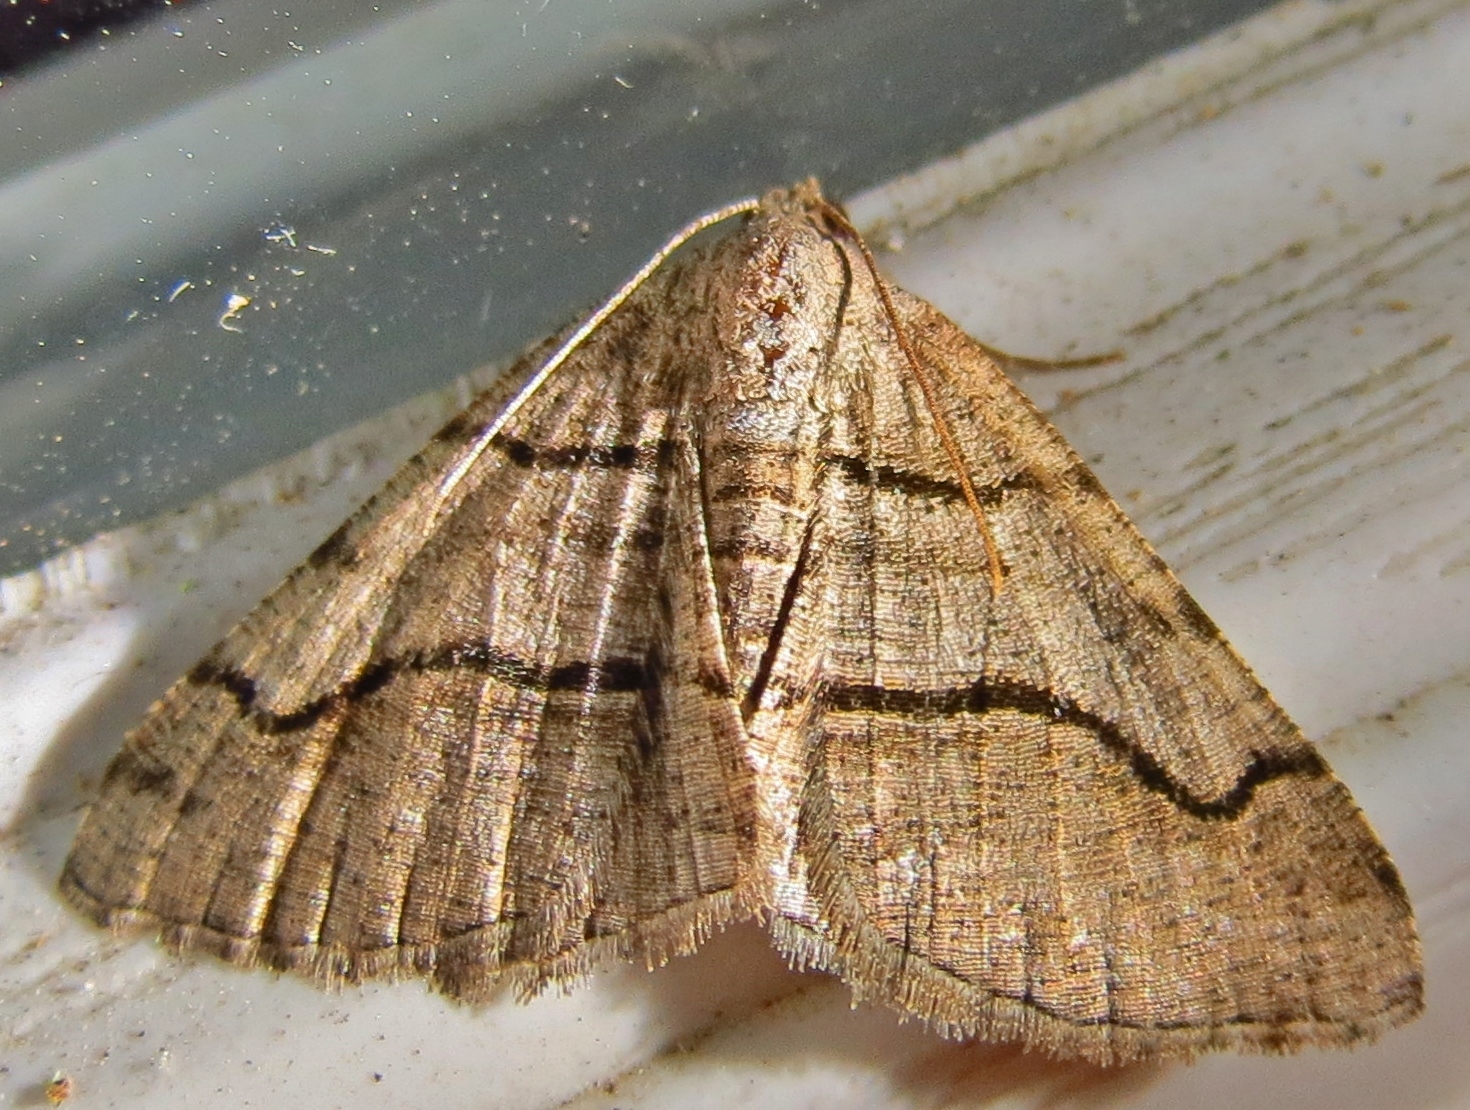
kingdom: Animalia
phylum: Arthropoda
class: Insecta
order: Lepidoptera
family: Geometridae
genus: Digrammia
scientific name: Digrammia continuata
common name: Curve-lined angle
